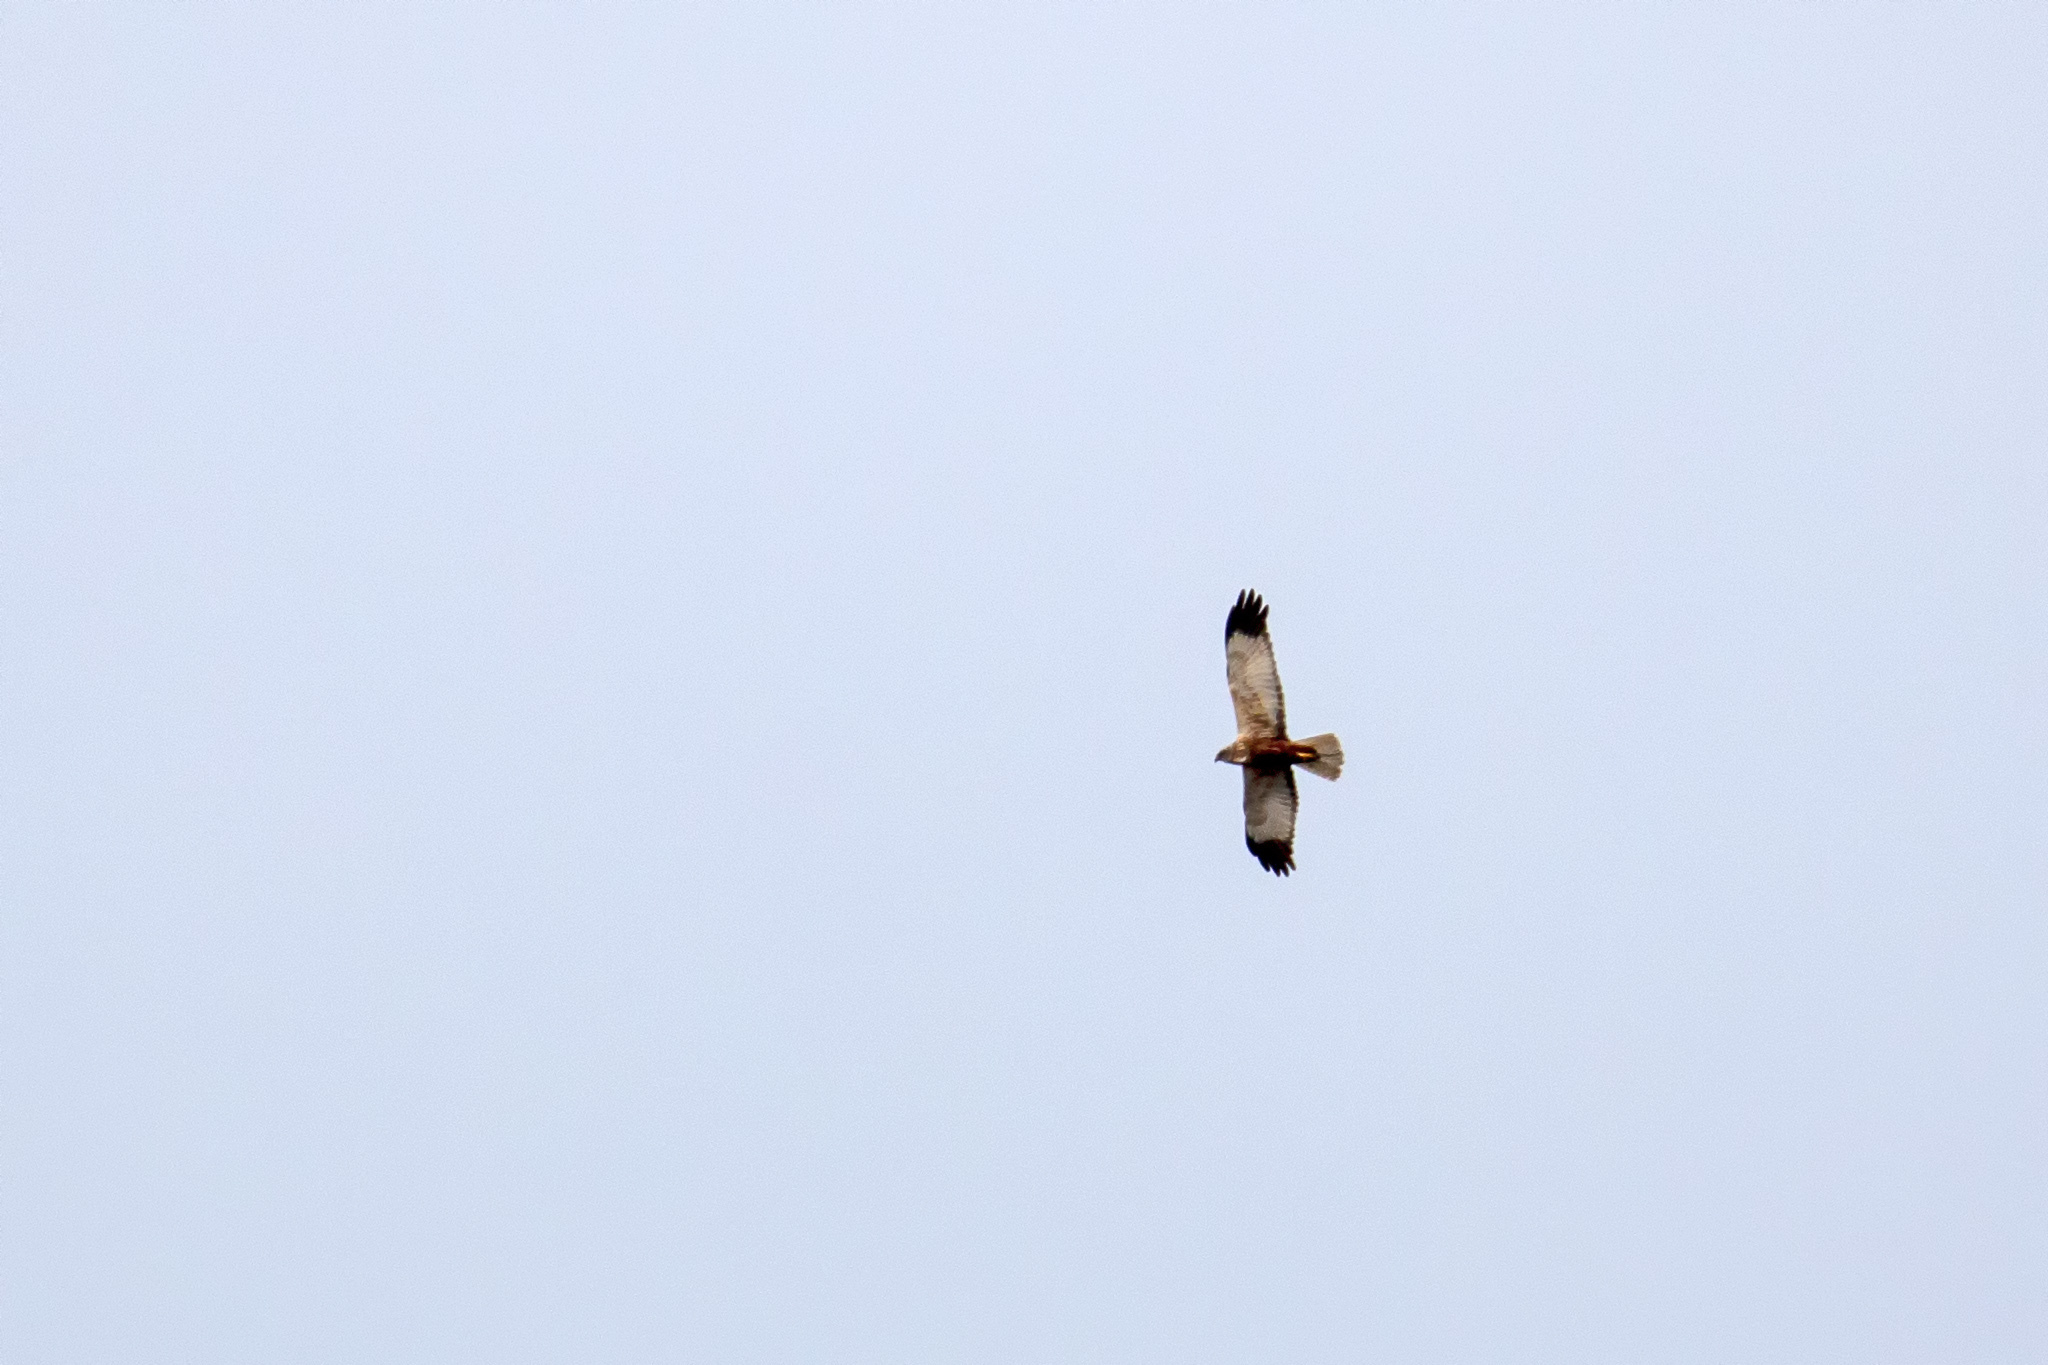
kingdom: Animalia
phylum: Chordata
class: Aves
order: Accipitriformes
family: Accipitridae
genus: Circus
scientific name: Circus aeruginosus
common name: Western marsh harrier
